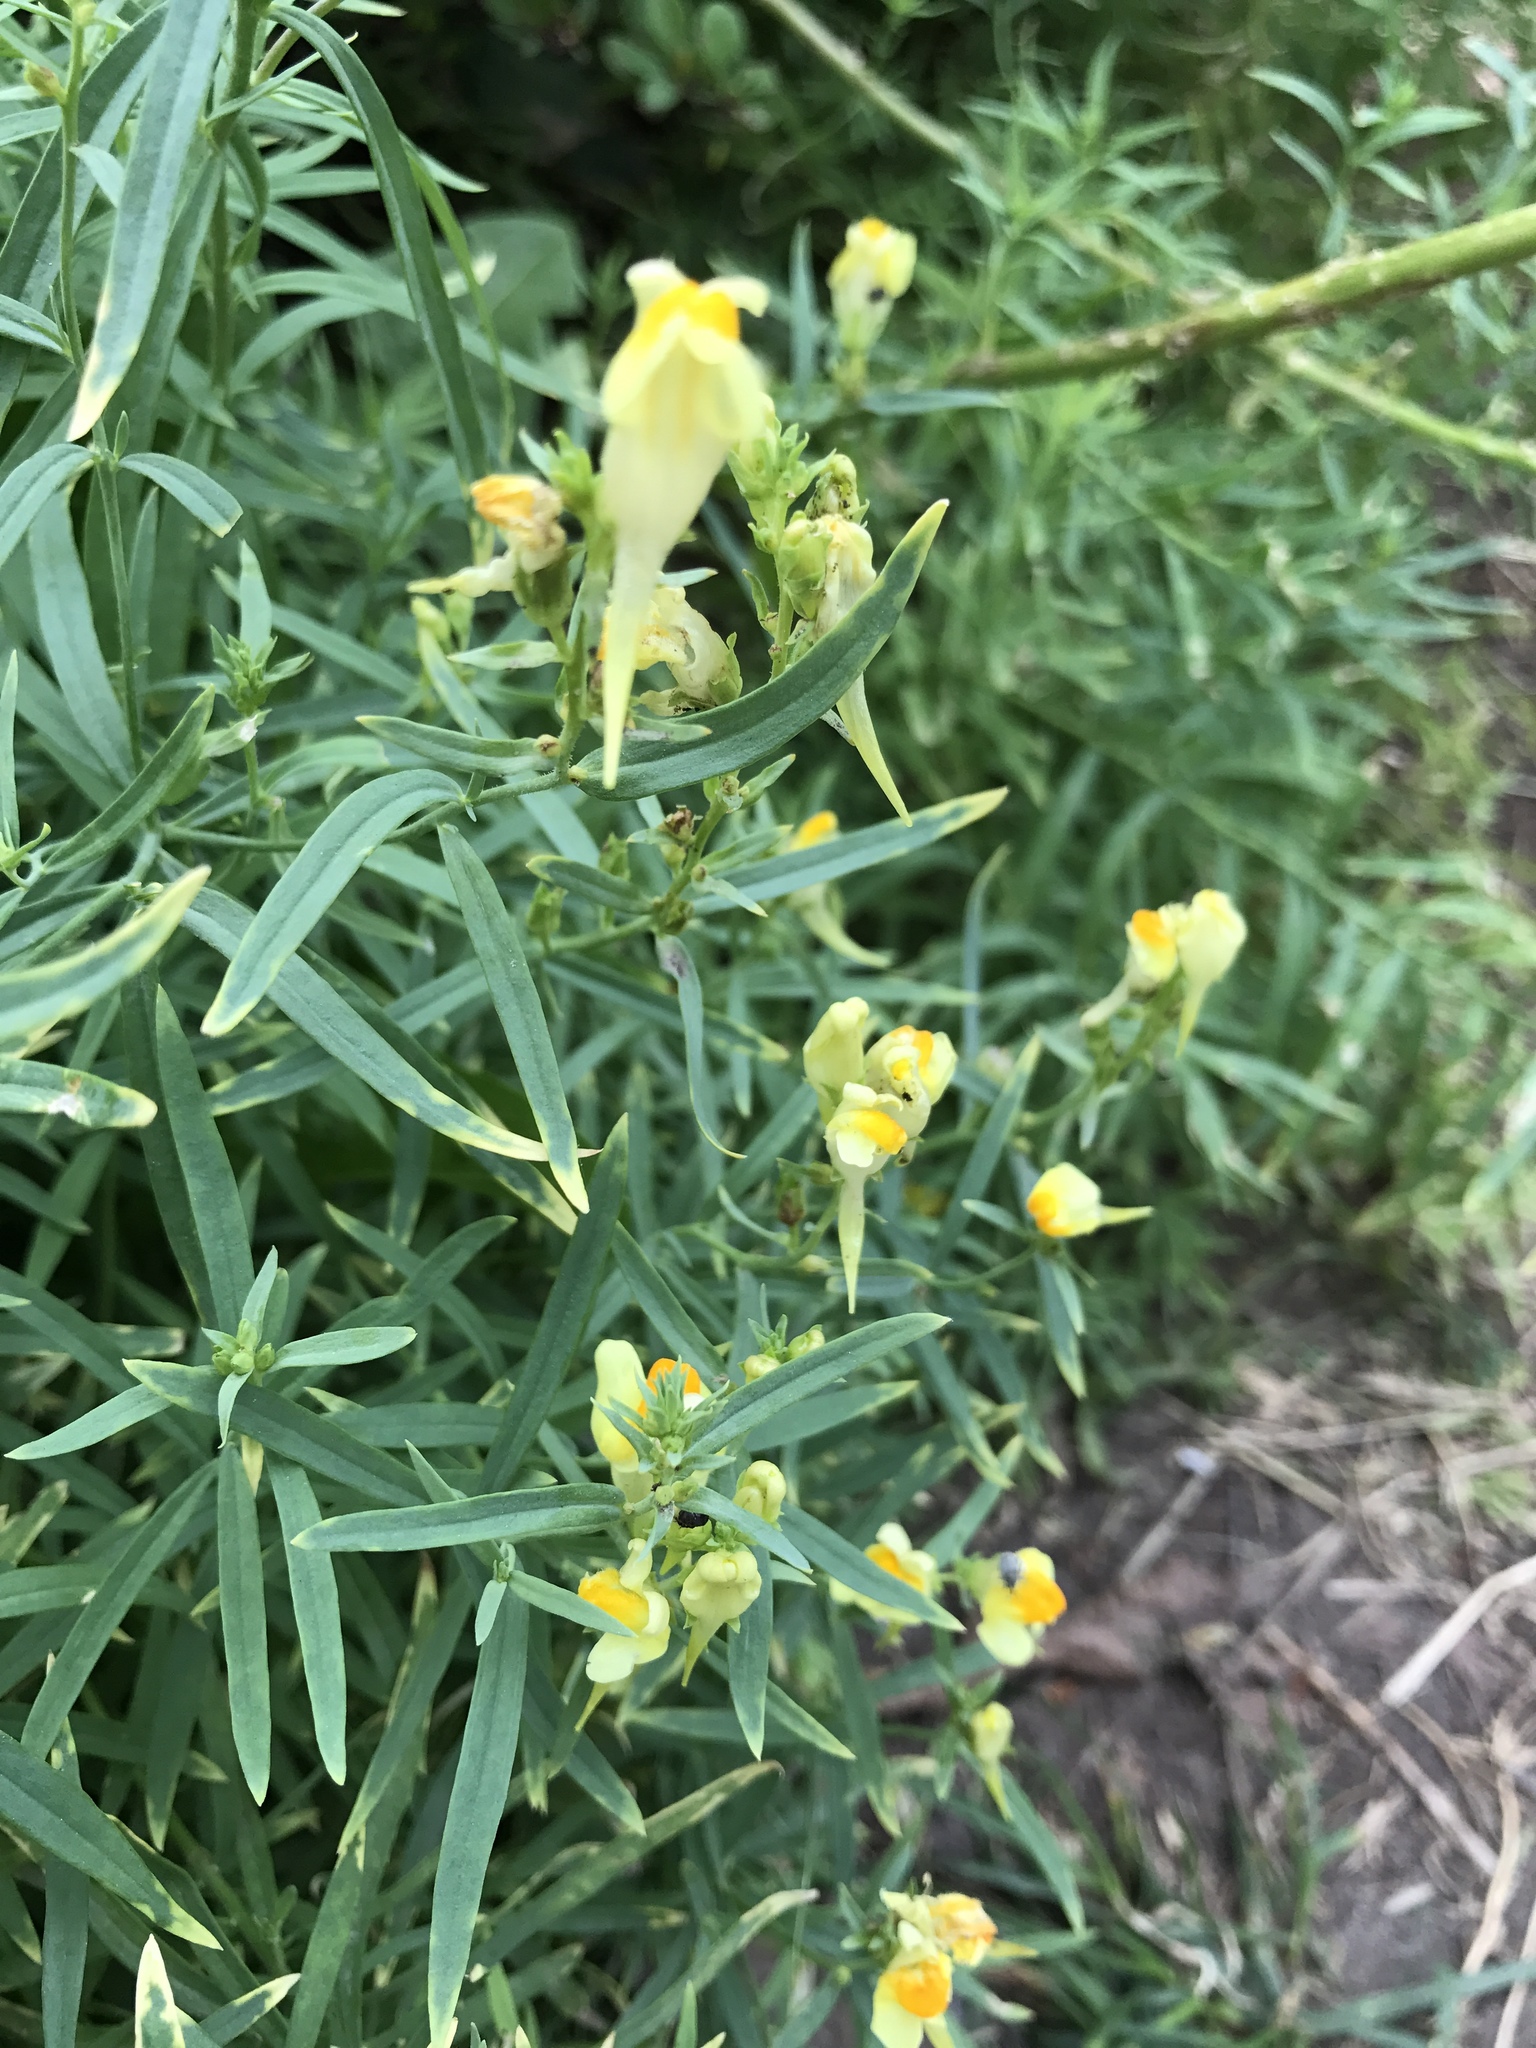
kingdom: Plantae
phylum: Tracheophyta
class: Magnoliopsida
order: Lamiales
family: Plantaginaceae
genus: Linaria
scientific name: Linaria vulgaris
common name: Butter and eggs
